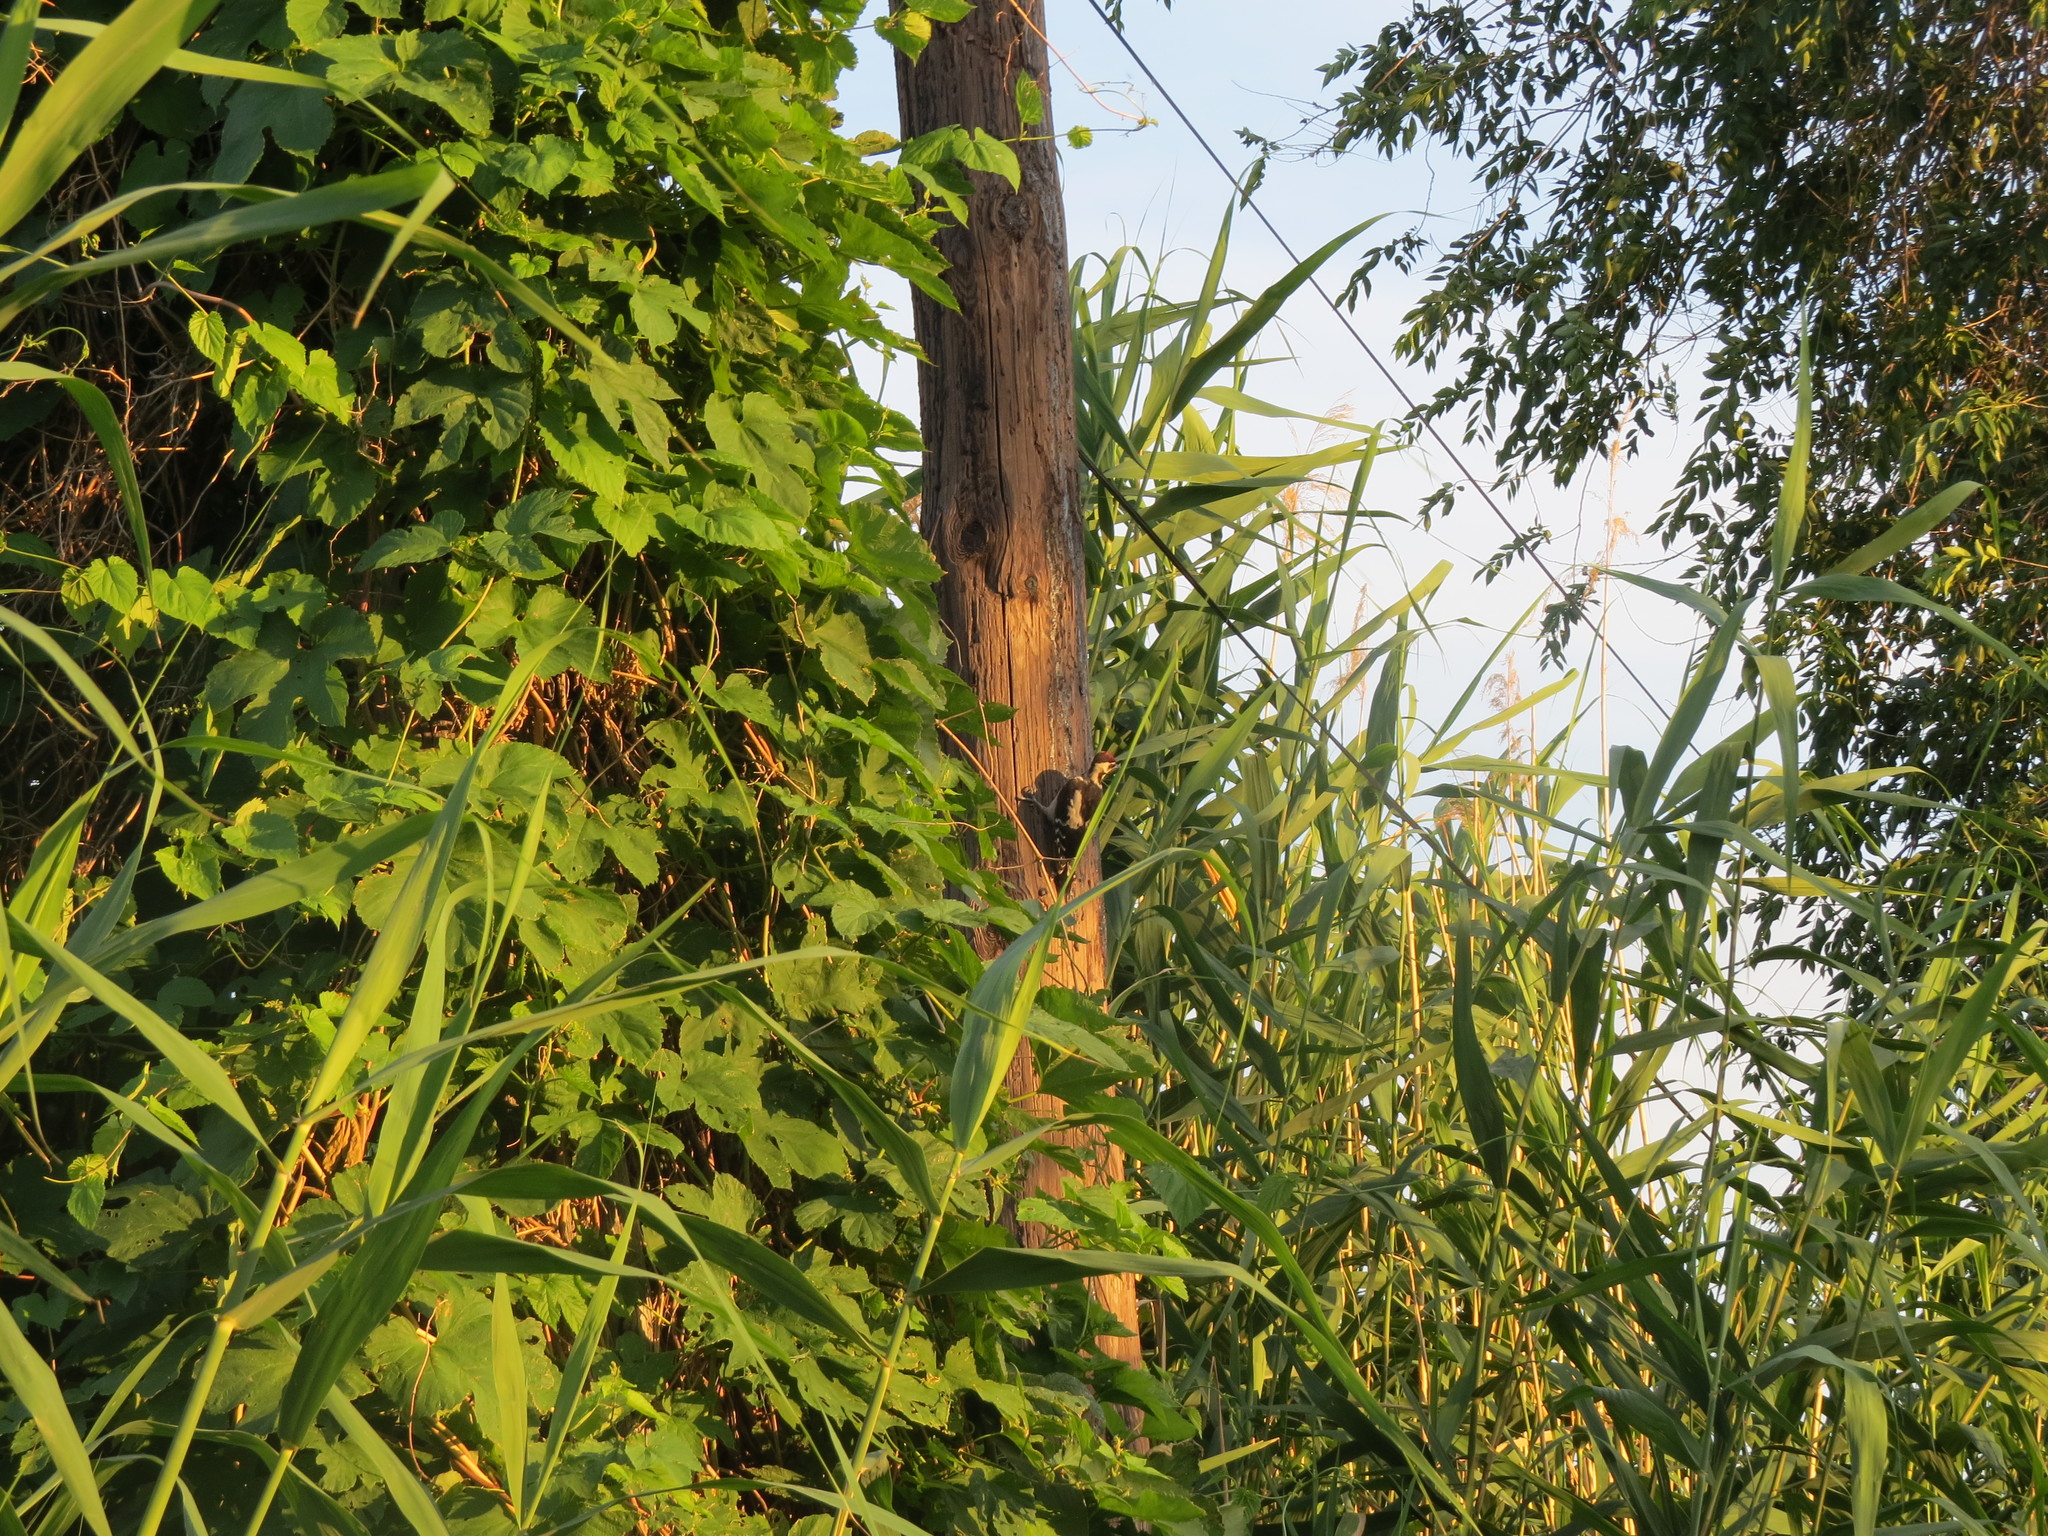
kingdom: Animalia
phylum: Chordata
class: Aves
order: Piciformes
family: Picidae
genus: Dendrocopos
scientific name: Dendrocopos syriacus
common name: Syrian woodpecker
